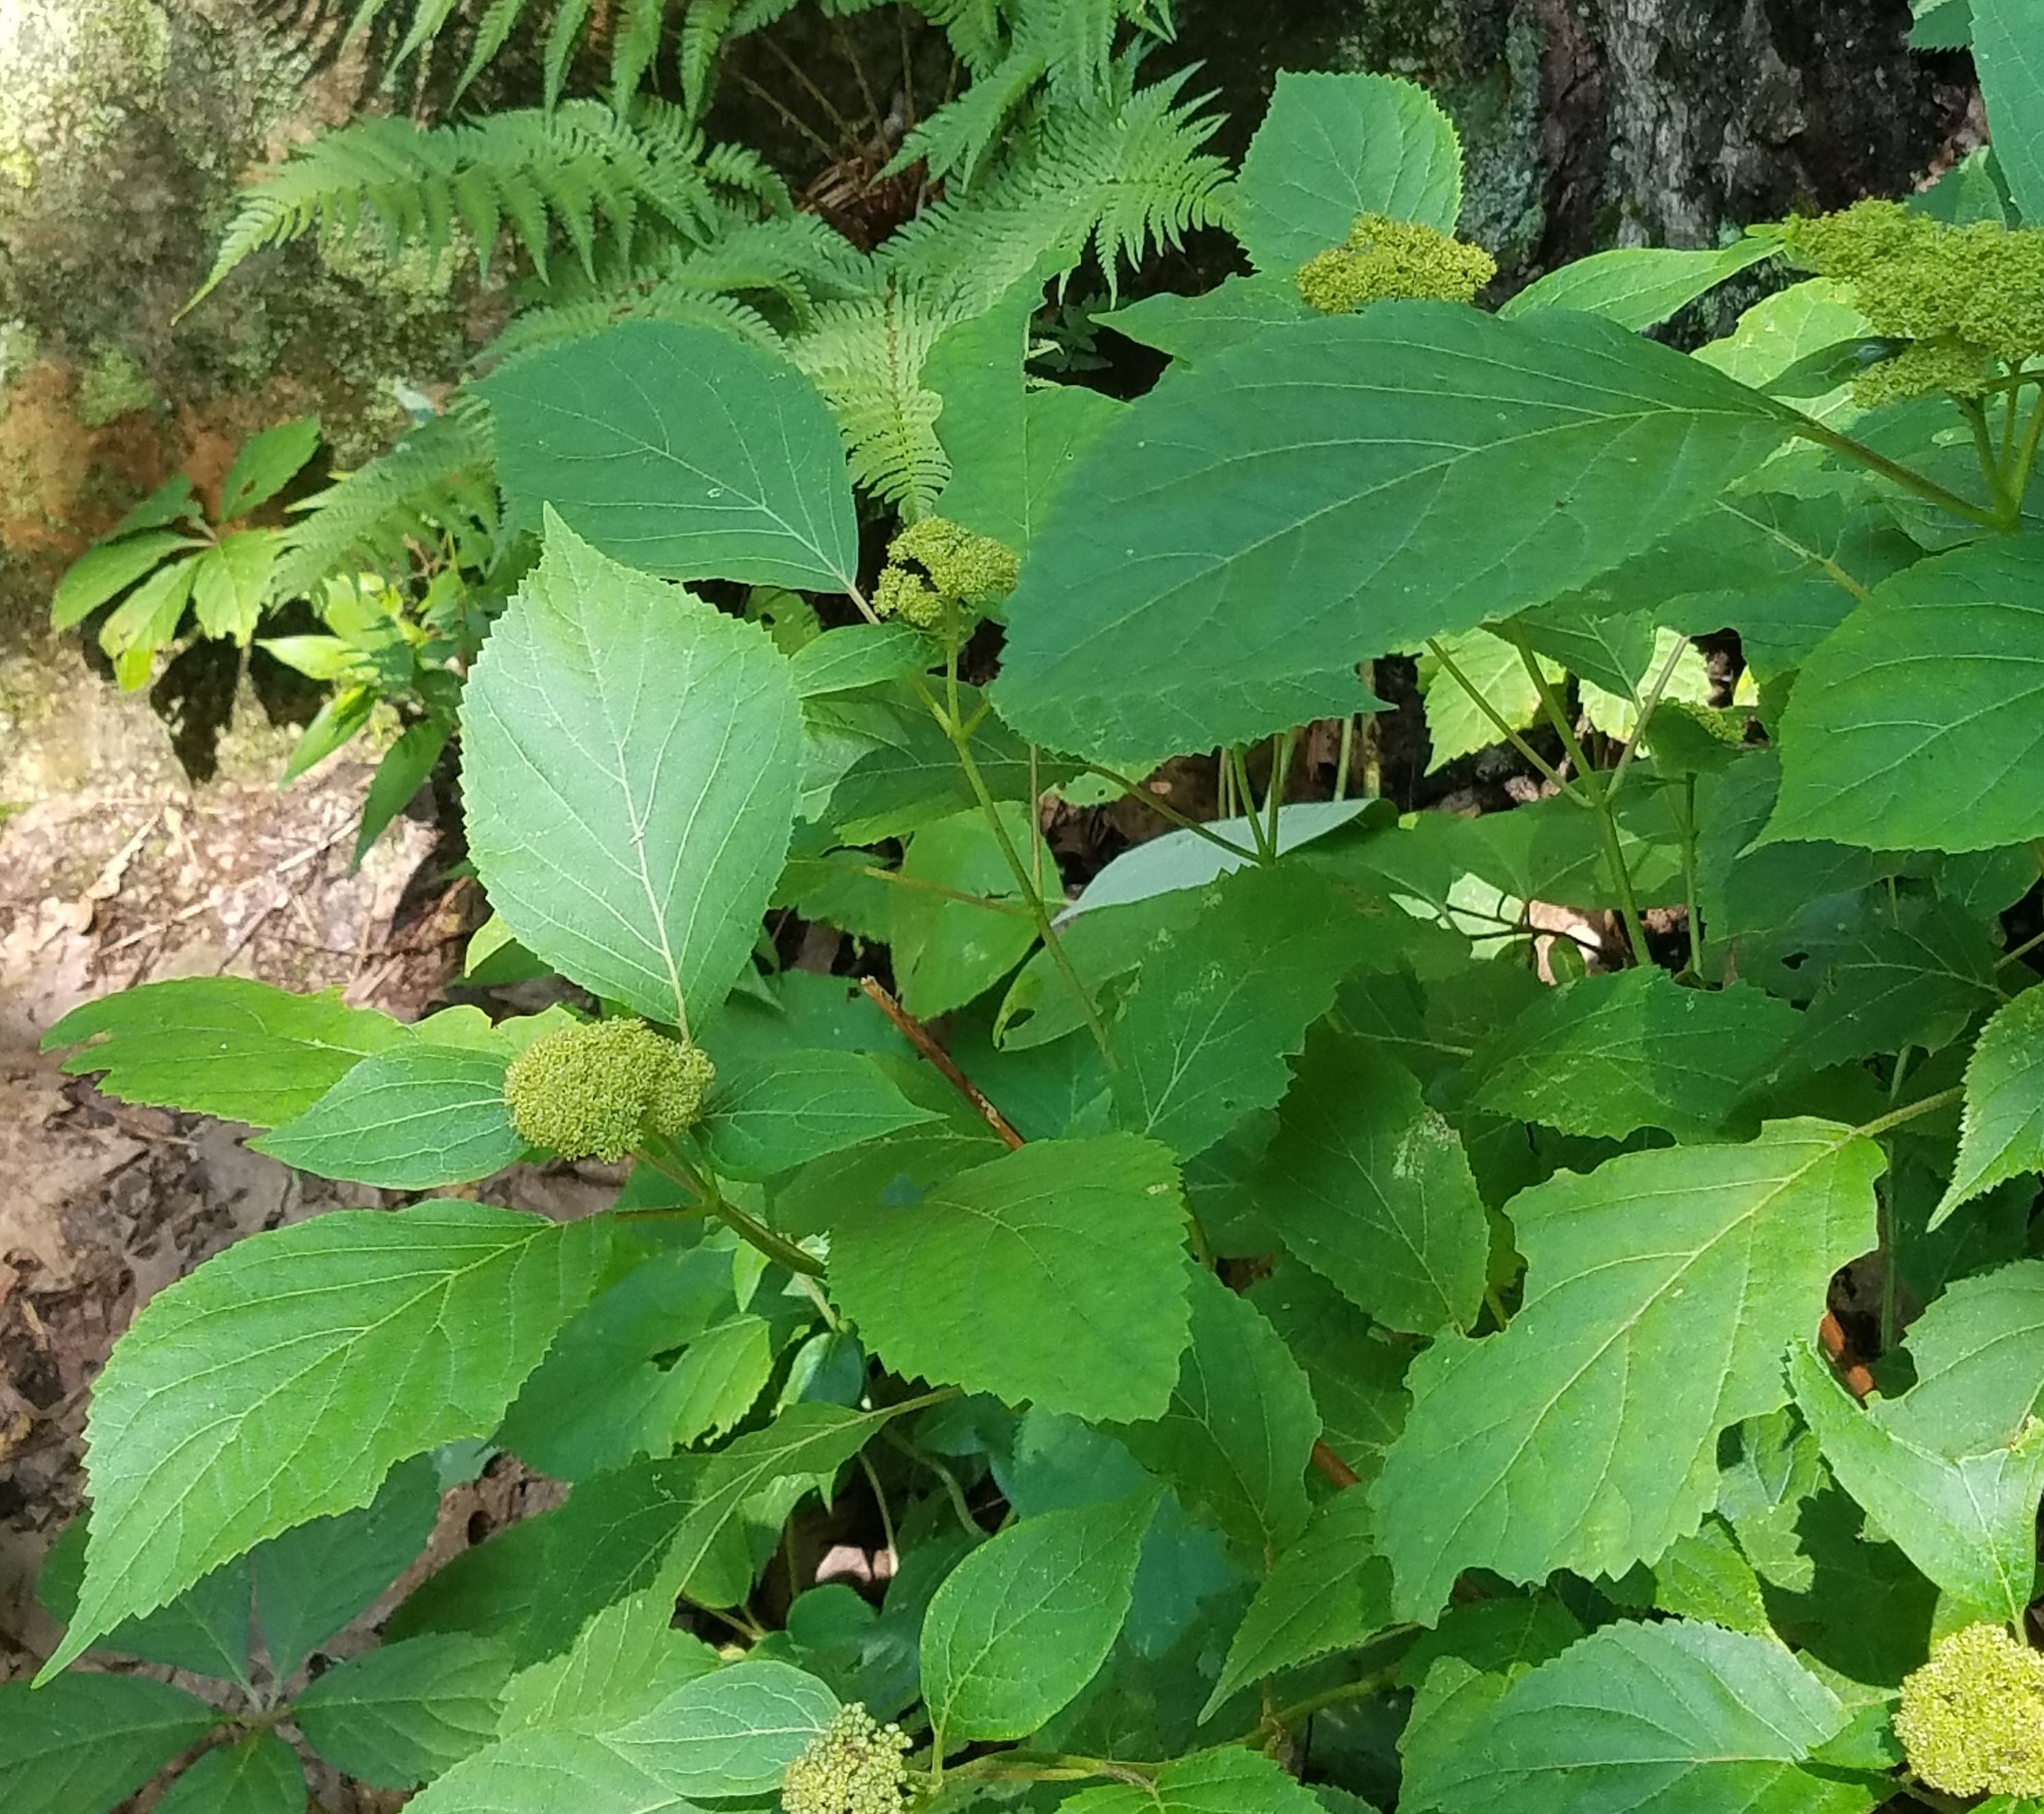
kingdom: Plantae
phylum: Tracheophyta
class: Magnoliopsida
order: Cornales
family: Hydrangeaceae
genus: Hydrangea
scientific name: Hydrangea arborescens
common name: Sevenbark
